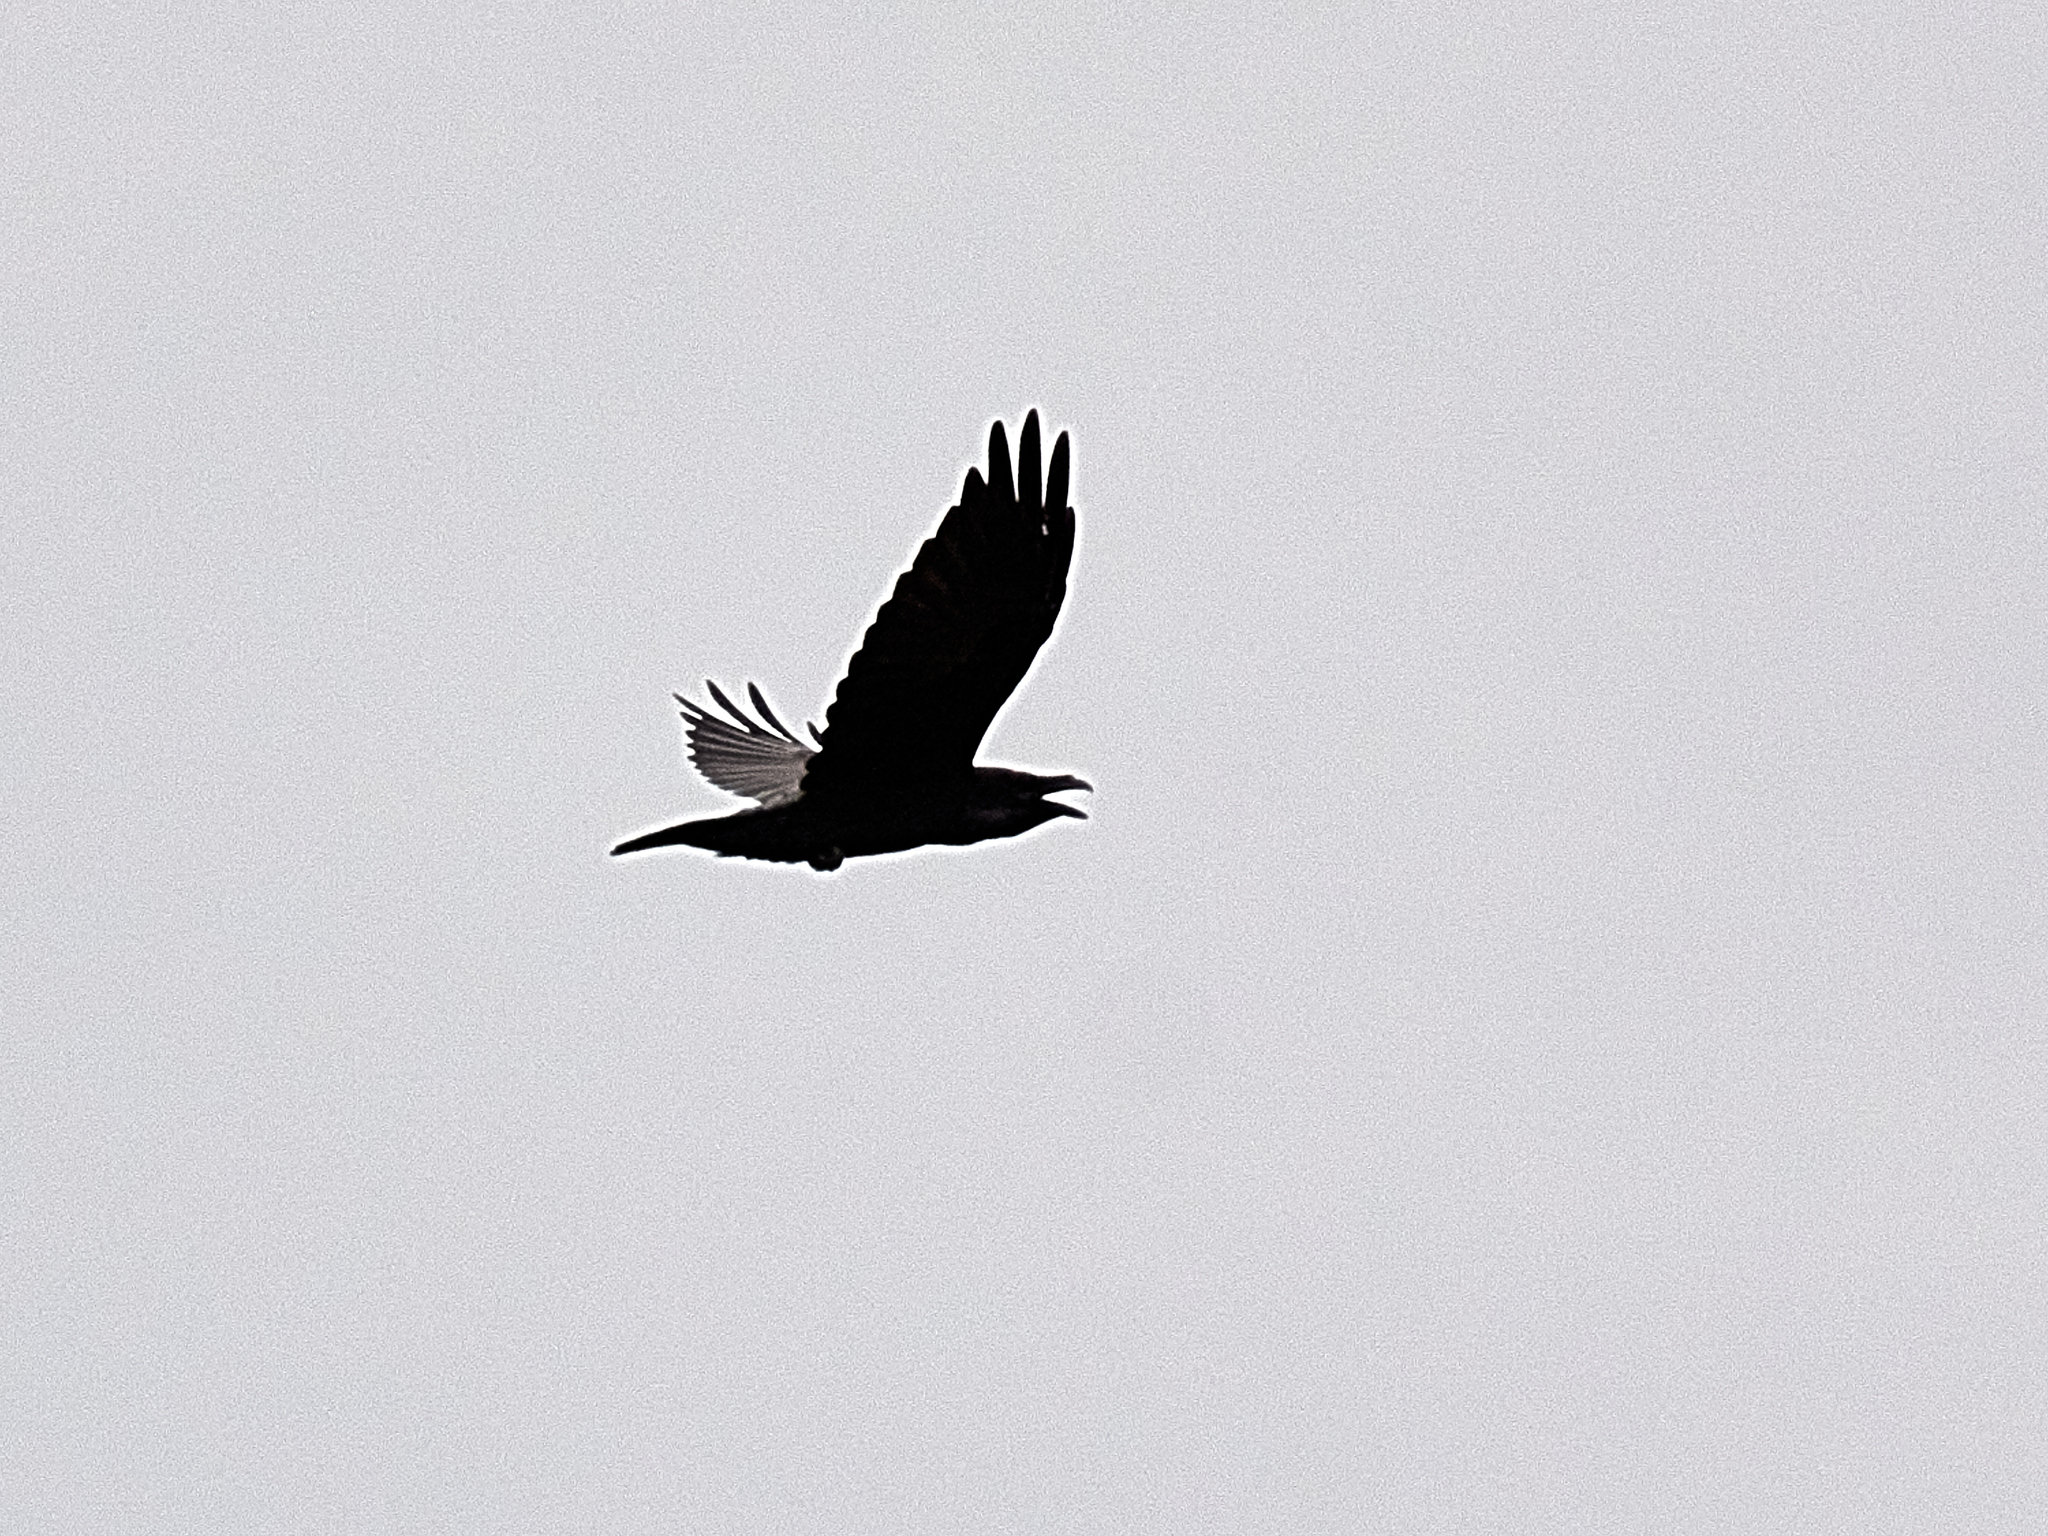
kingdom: Animalia
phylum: Chordata
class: Aves
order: Passeriformes
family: Corvidae
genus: Corvus
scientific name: Corvus corax
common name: Common raven
